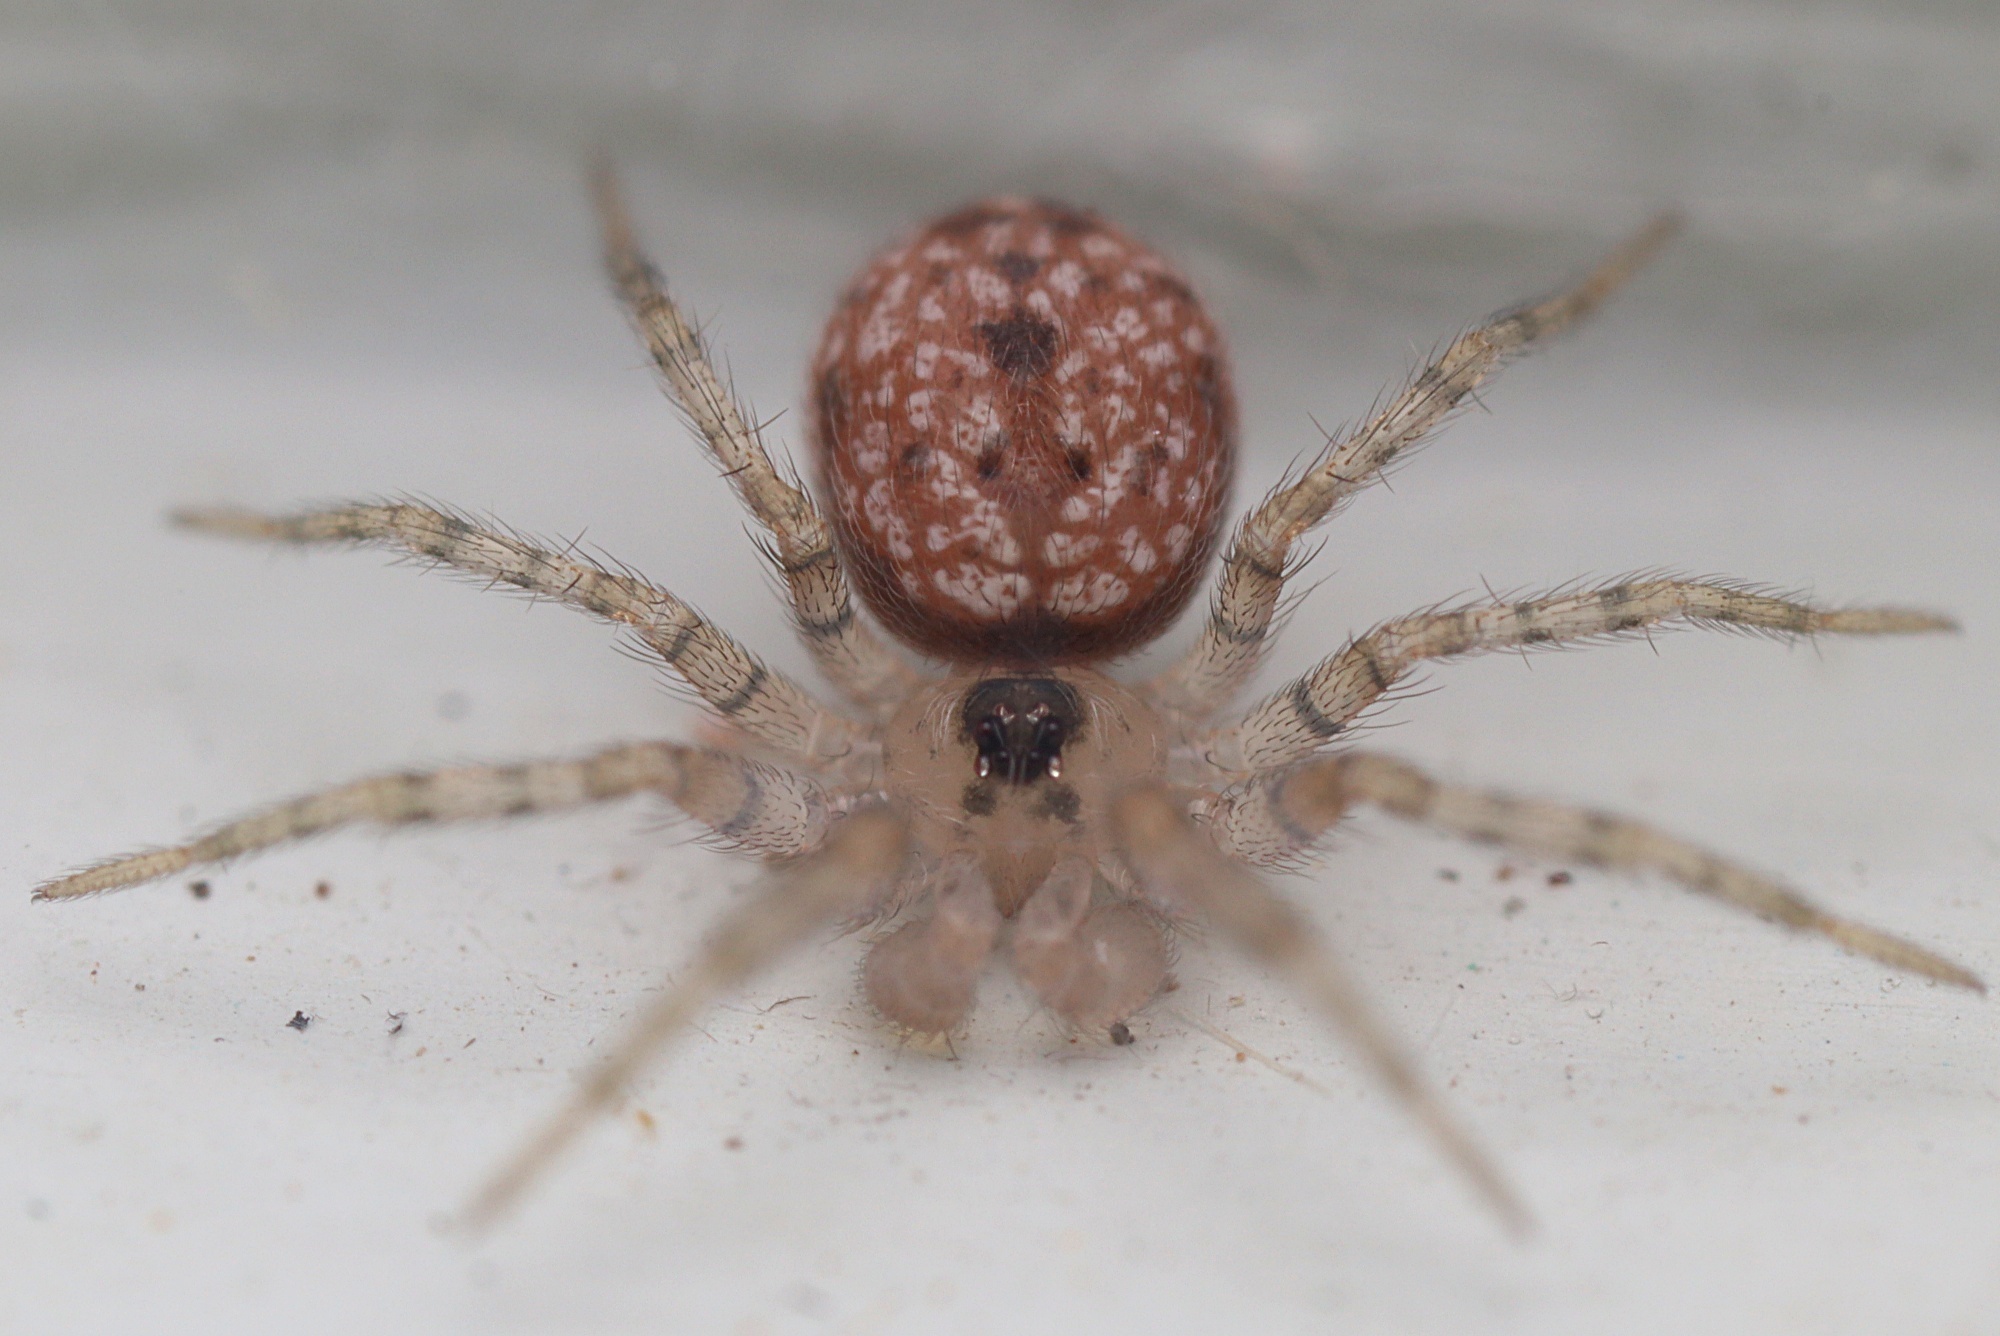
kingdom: Animalia
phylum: Arthropoda
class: Arachnida
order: Araneae
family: Oecobiidae
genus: Oecobius
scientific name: Oecobius navus
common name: Flatmesh weaver
